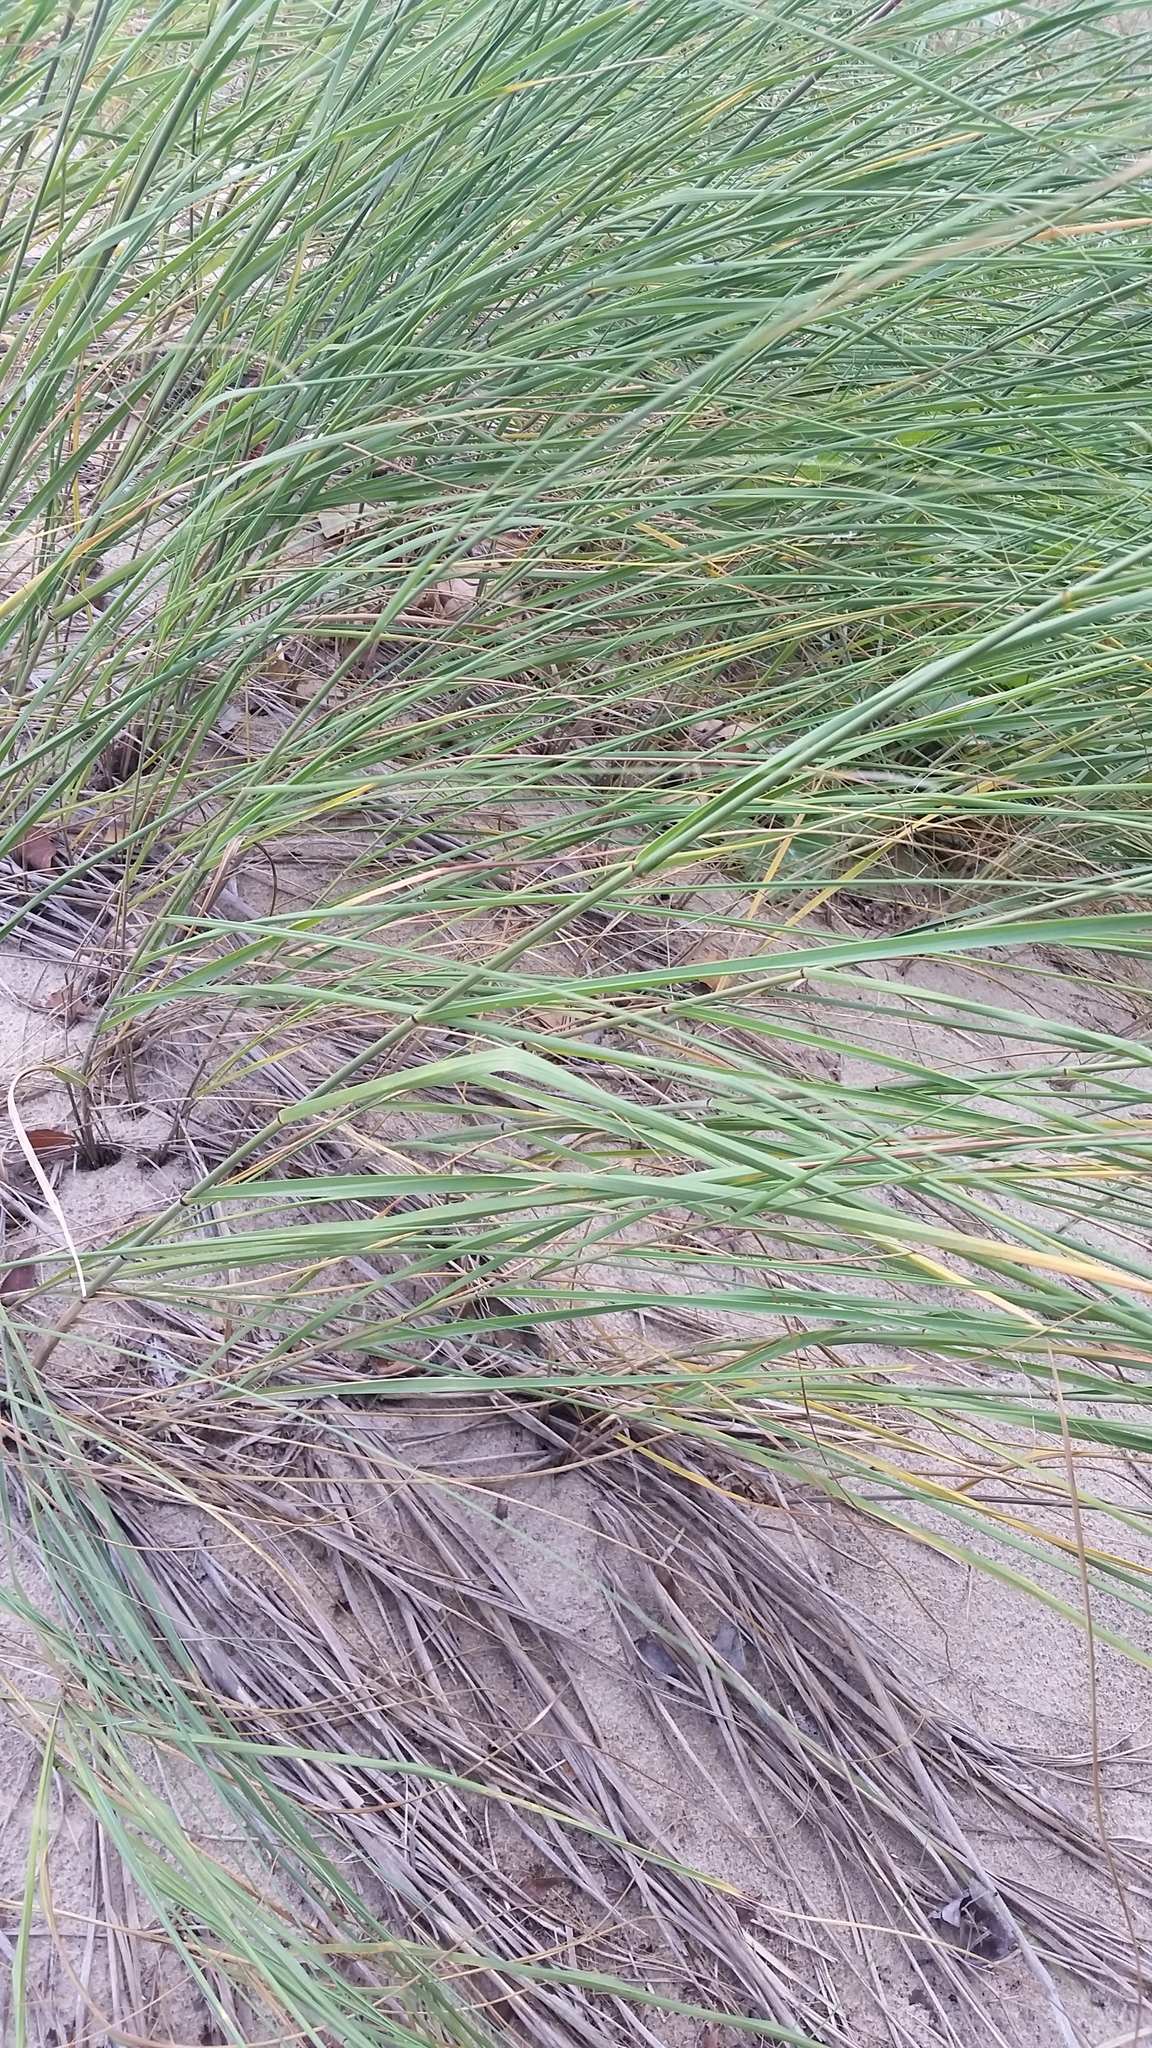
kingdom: Plantae
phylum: Tracheophyta
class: Liliopsida
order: Poales
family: Poaceae
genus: Sporobolus
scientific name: Sporobolus rigidus
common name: Prairie sandreed
